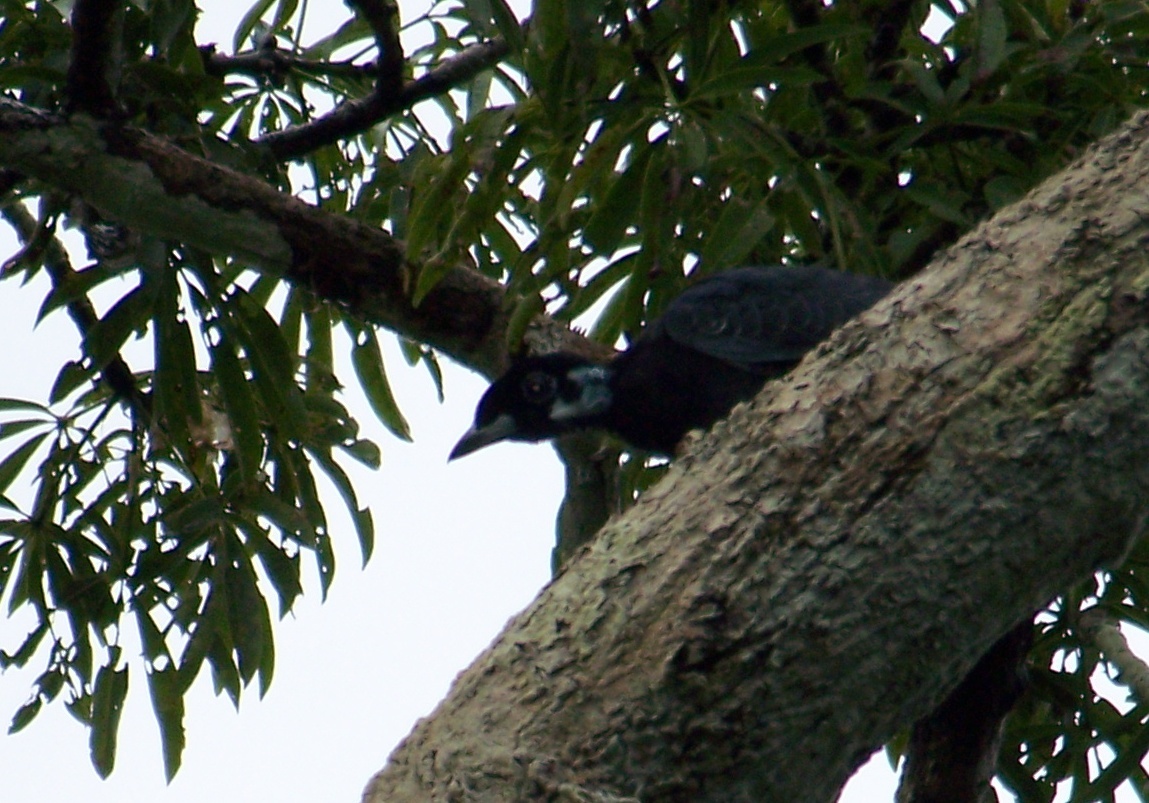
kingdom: Animalia
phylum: Chordata
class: Aves
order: Passeriformes
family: Cotingidae
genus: Gymnoderus
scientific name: Gymnoderus foetidus
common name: Bare-necked fruitcrow
